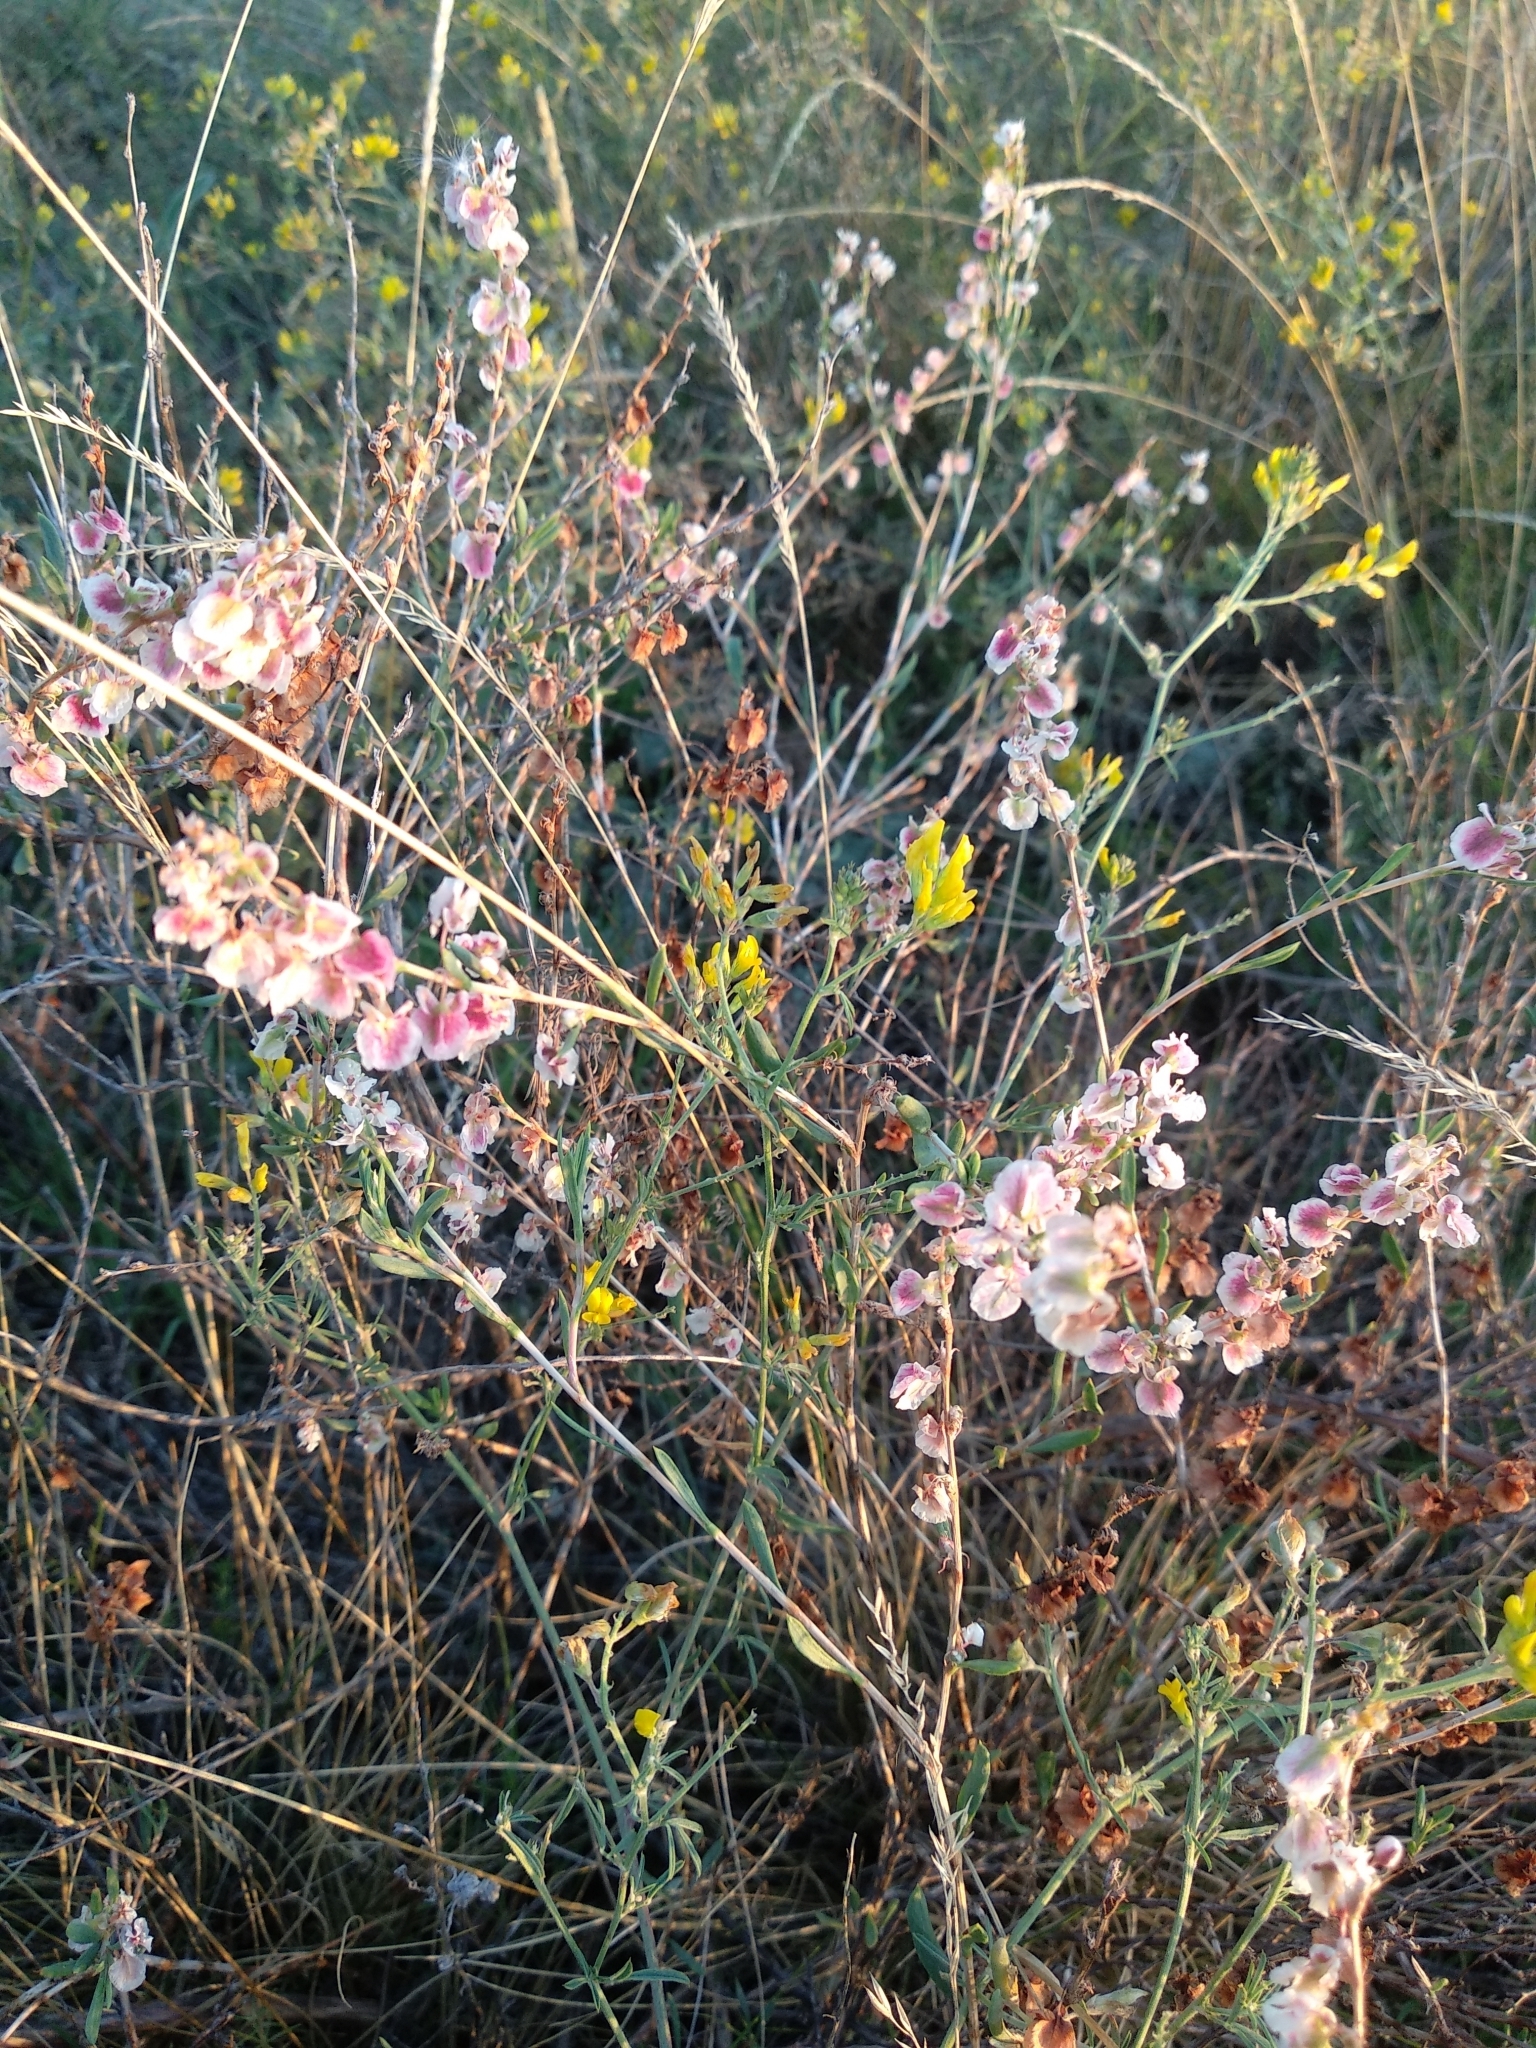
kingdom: Plantae
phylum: Tracheophyta
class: Magnoliopsida
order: Caryophyllales
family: Polygonaceae
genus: Atraphaxis
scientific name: Atraphaxis frutescens
